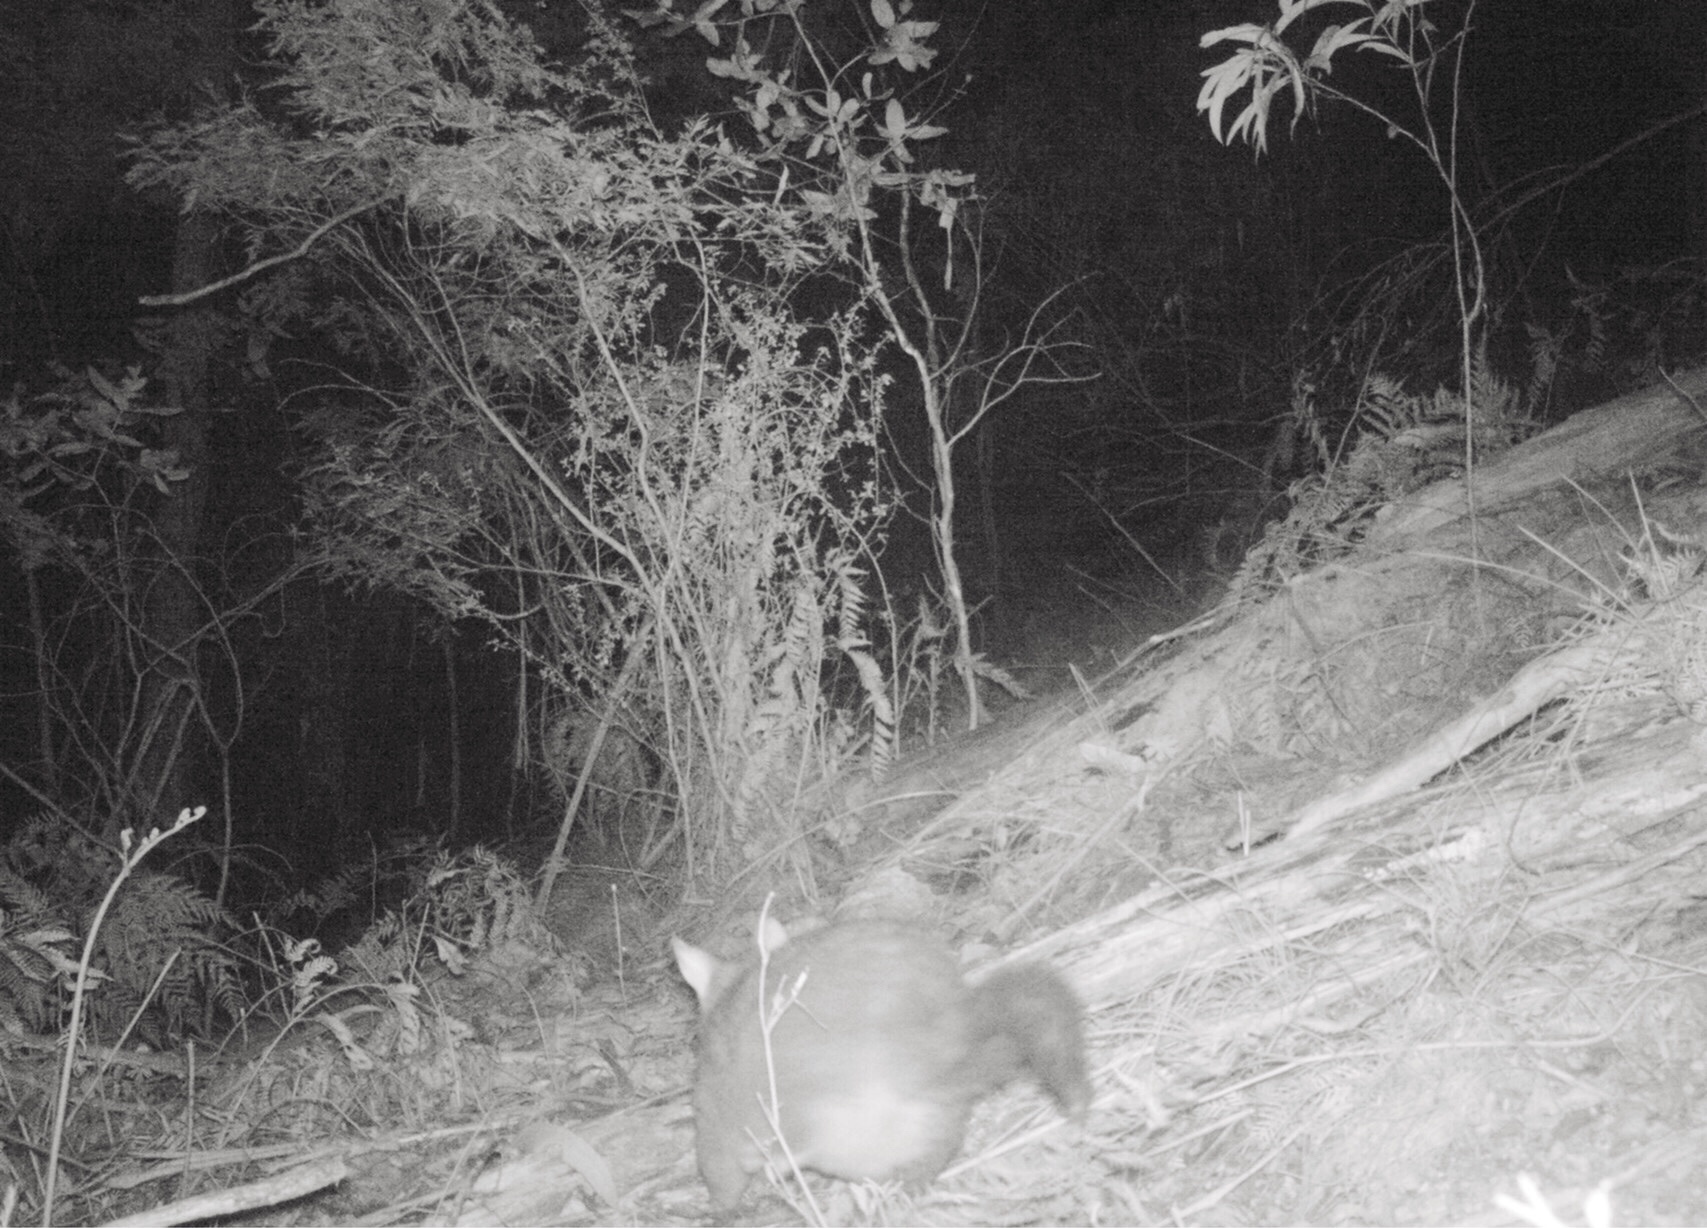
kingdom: Animalia
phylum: Chordata
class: Mammalia
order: Diprotodontia
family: Phalangeridae
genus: Trichosurus
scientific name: Trichosurus vulpecula
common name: Common brushtail
